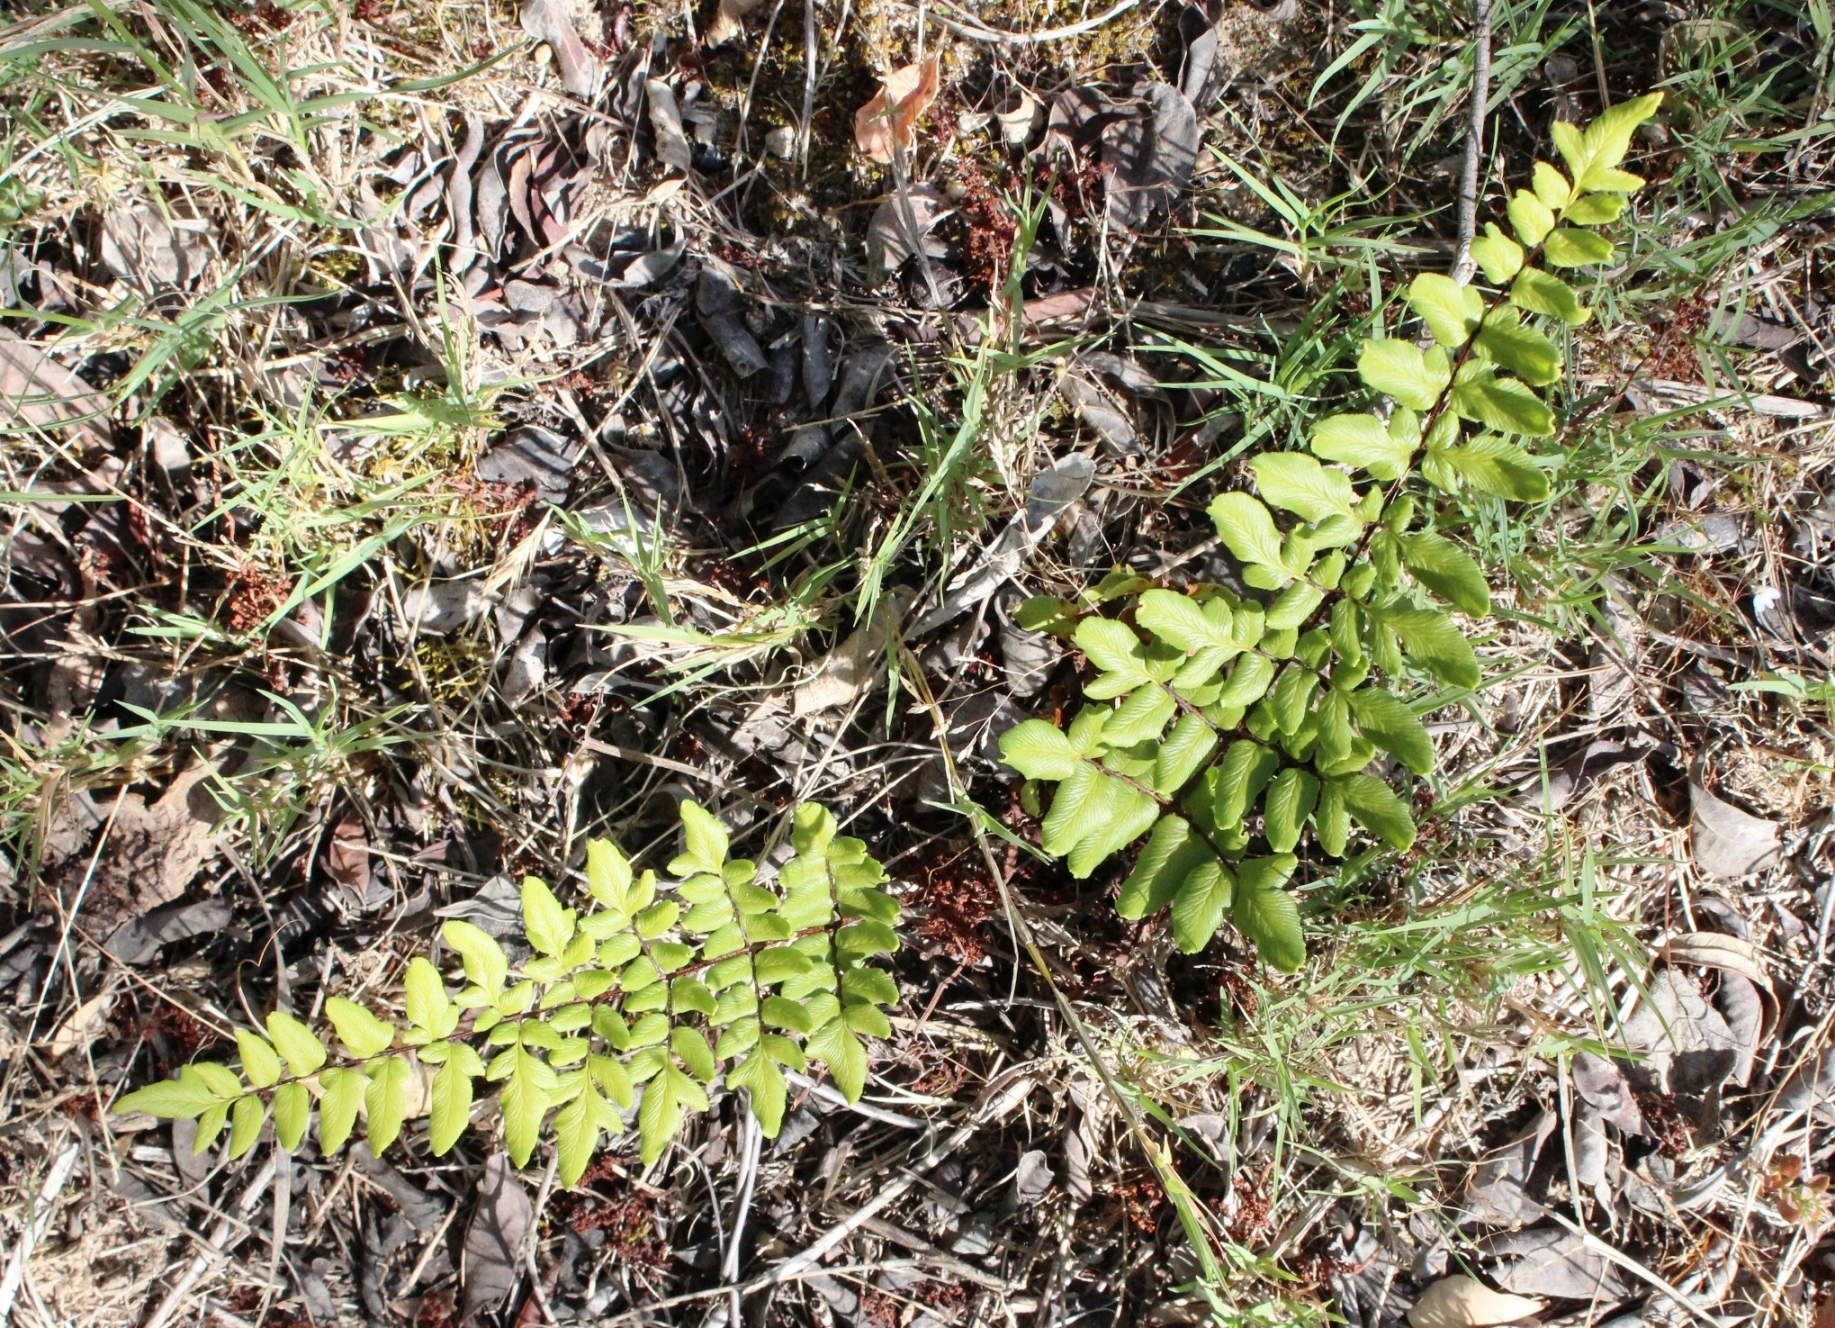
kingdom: Plantae
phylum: Tracheophyta
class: Polypodiopsida
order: Polypodiales
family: Pteridaceae
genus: Cheilanthes
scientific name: Cheilanthes viridis
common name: Green cliffbrake
